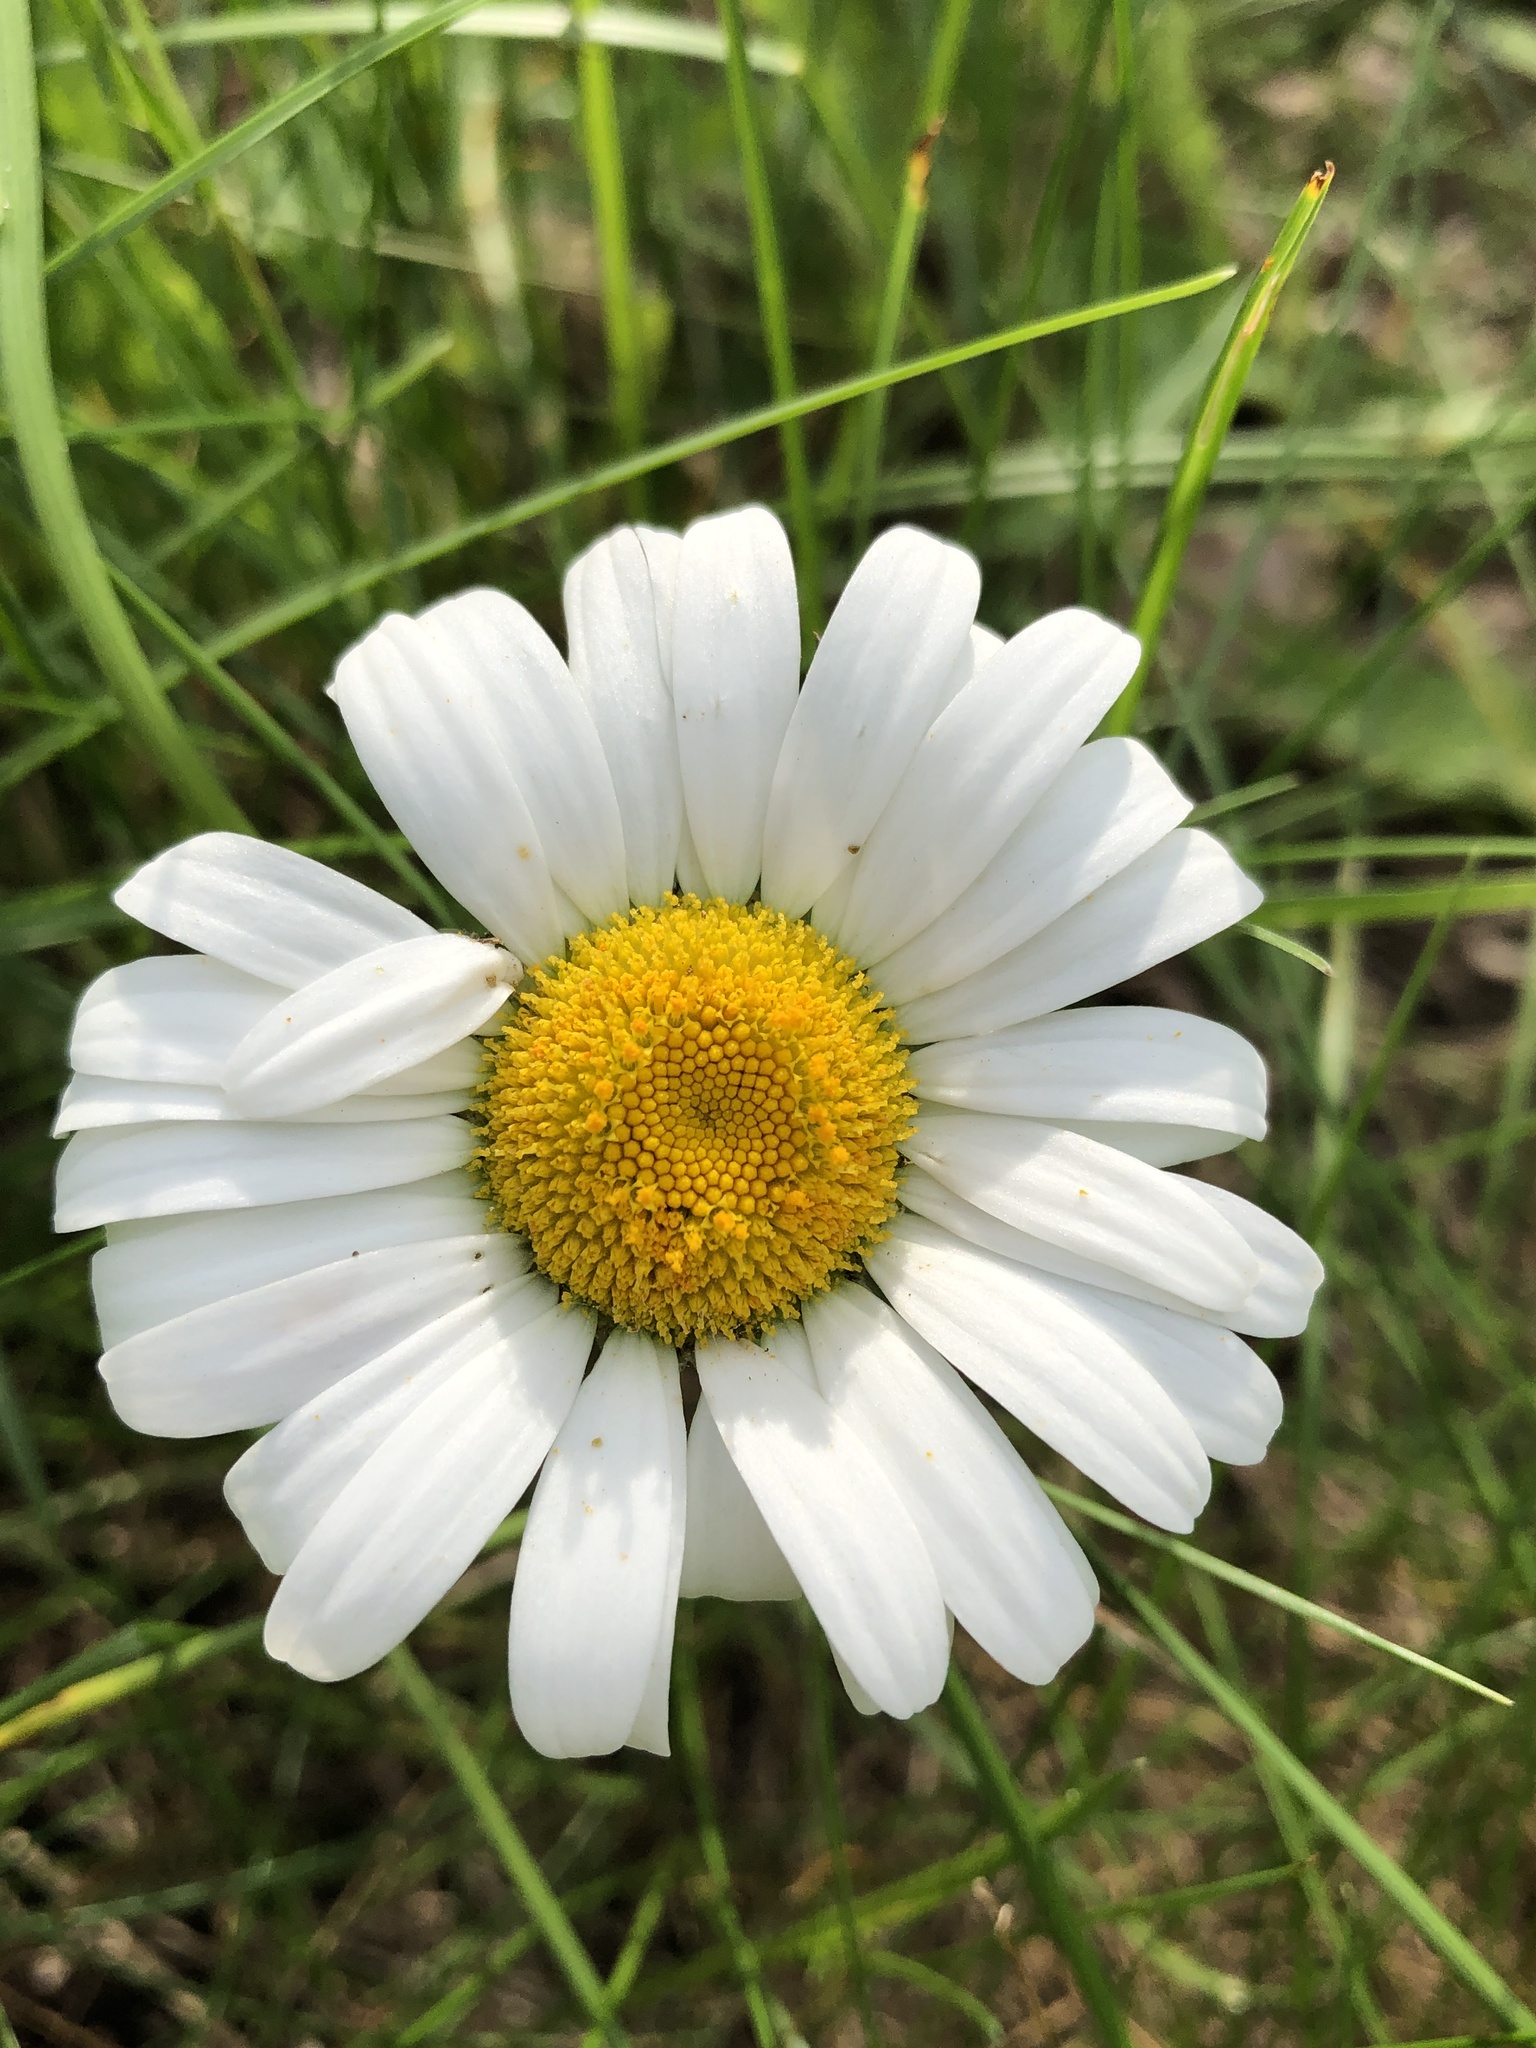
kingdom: Plantae
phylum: Tracheophyta
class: Magnoliopsida
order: Asterales
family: Asteraceae
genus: Leucanthemum
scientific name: Leucanthemum vulgare
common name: Oxeye daisy
